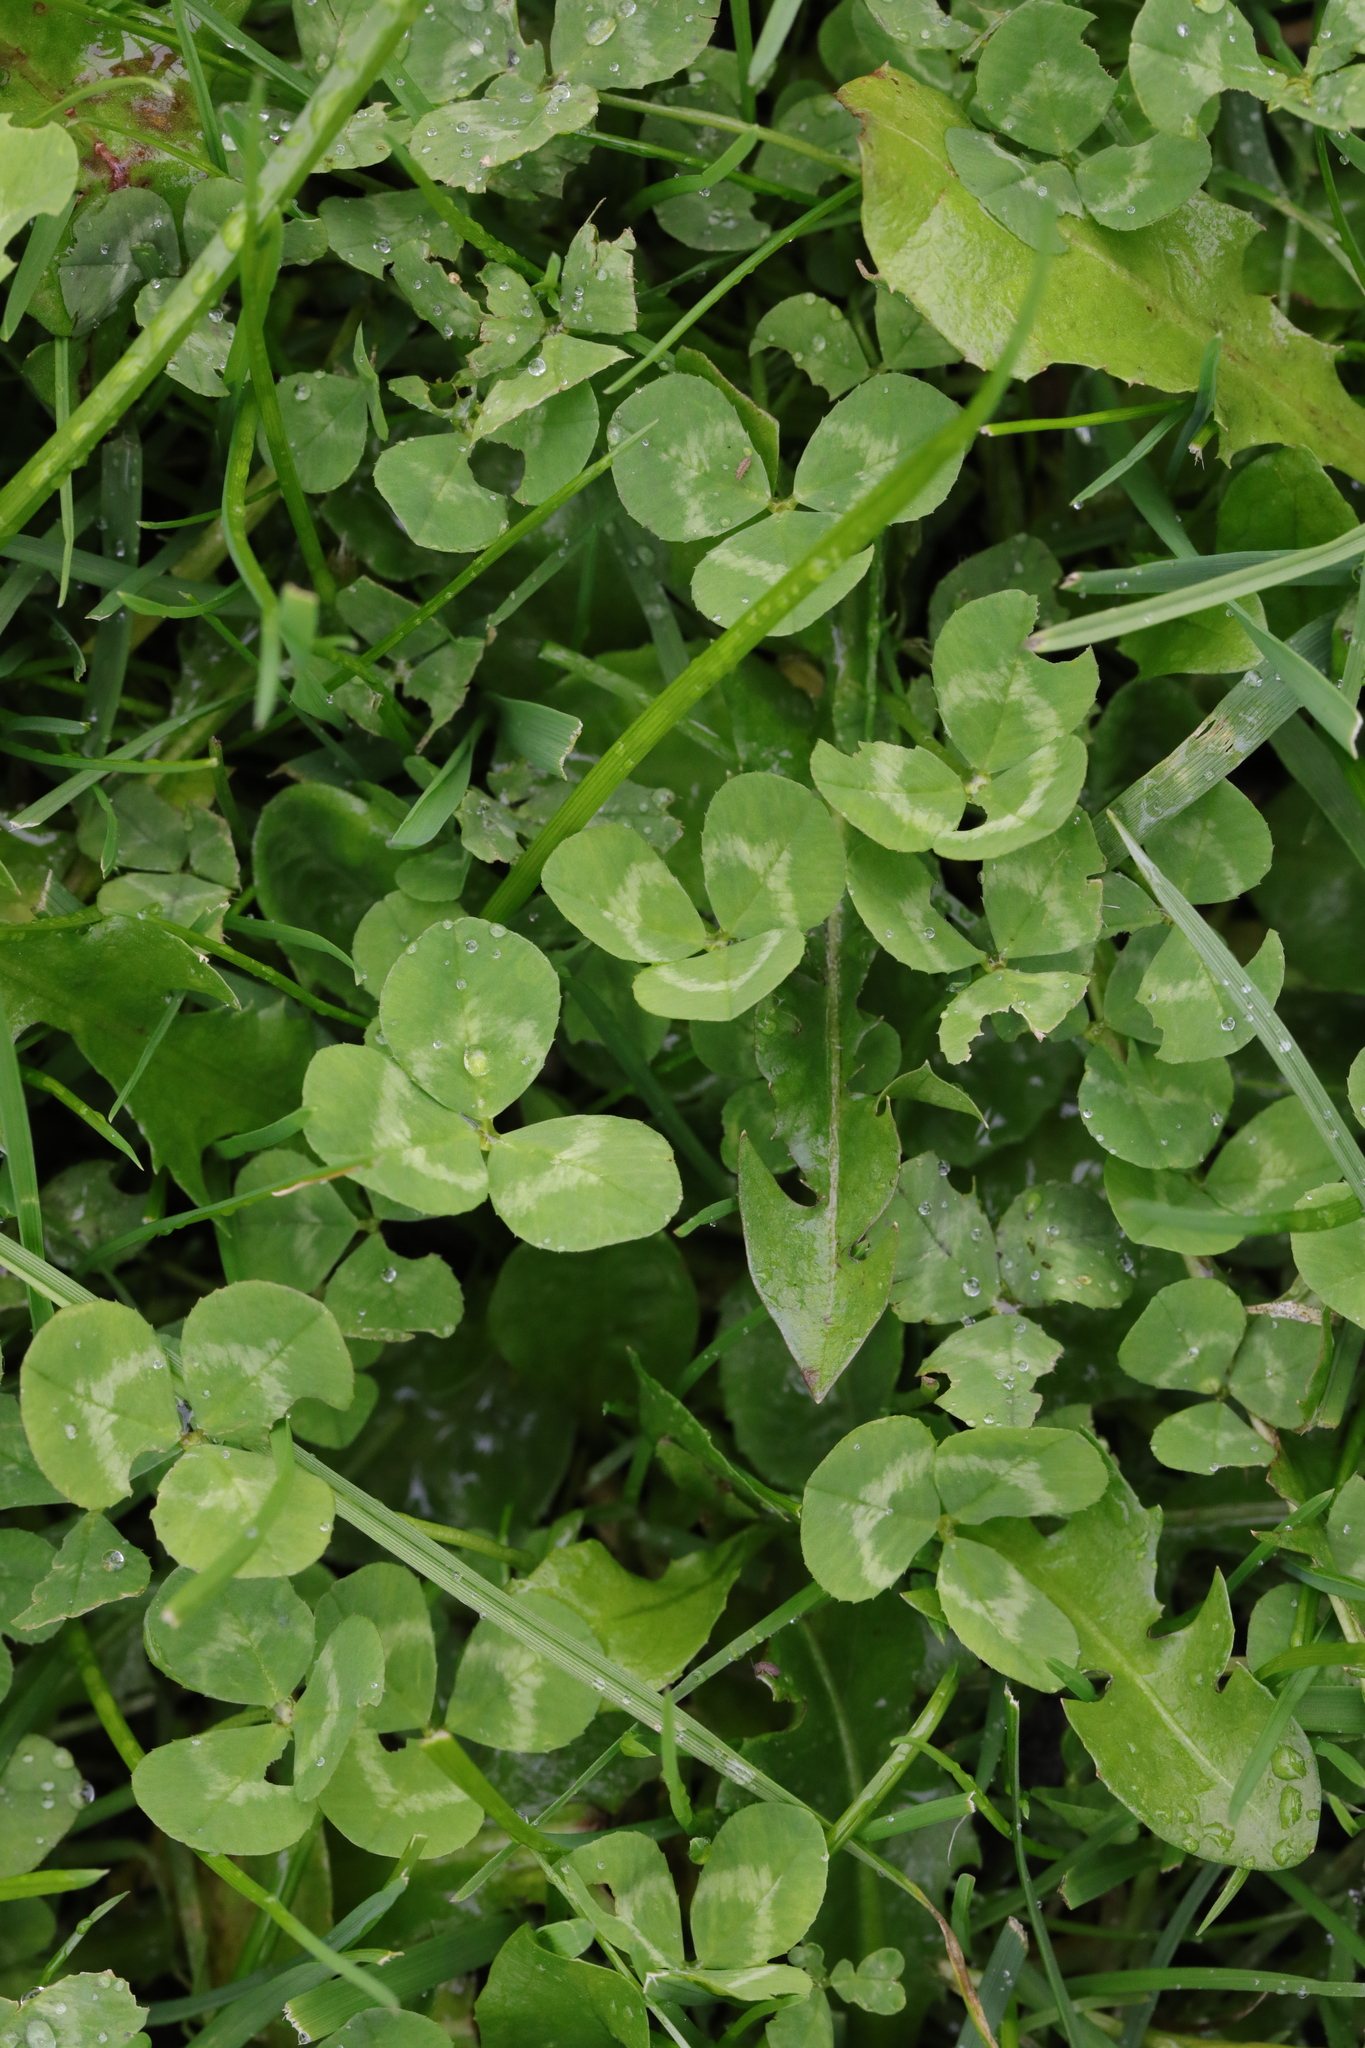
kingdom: Plantae
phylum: Tracheophyta
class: Magnoliopsida
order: Fabales
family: Fabaceae
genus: Trifolium
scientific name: Trifolium repens
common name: White clover
